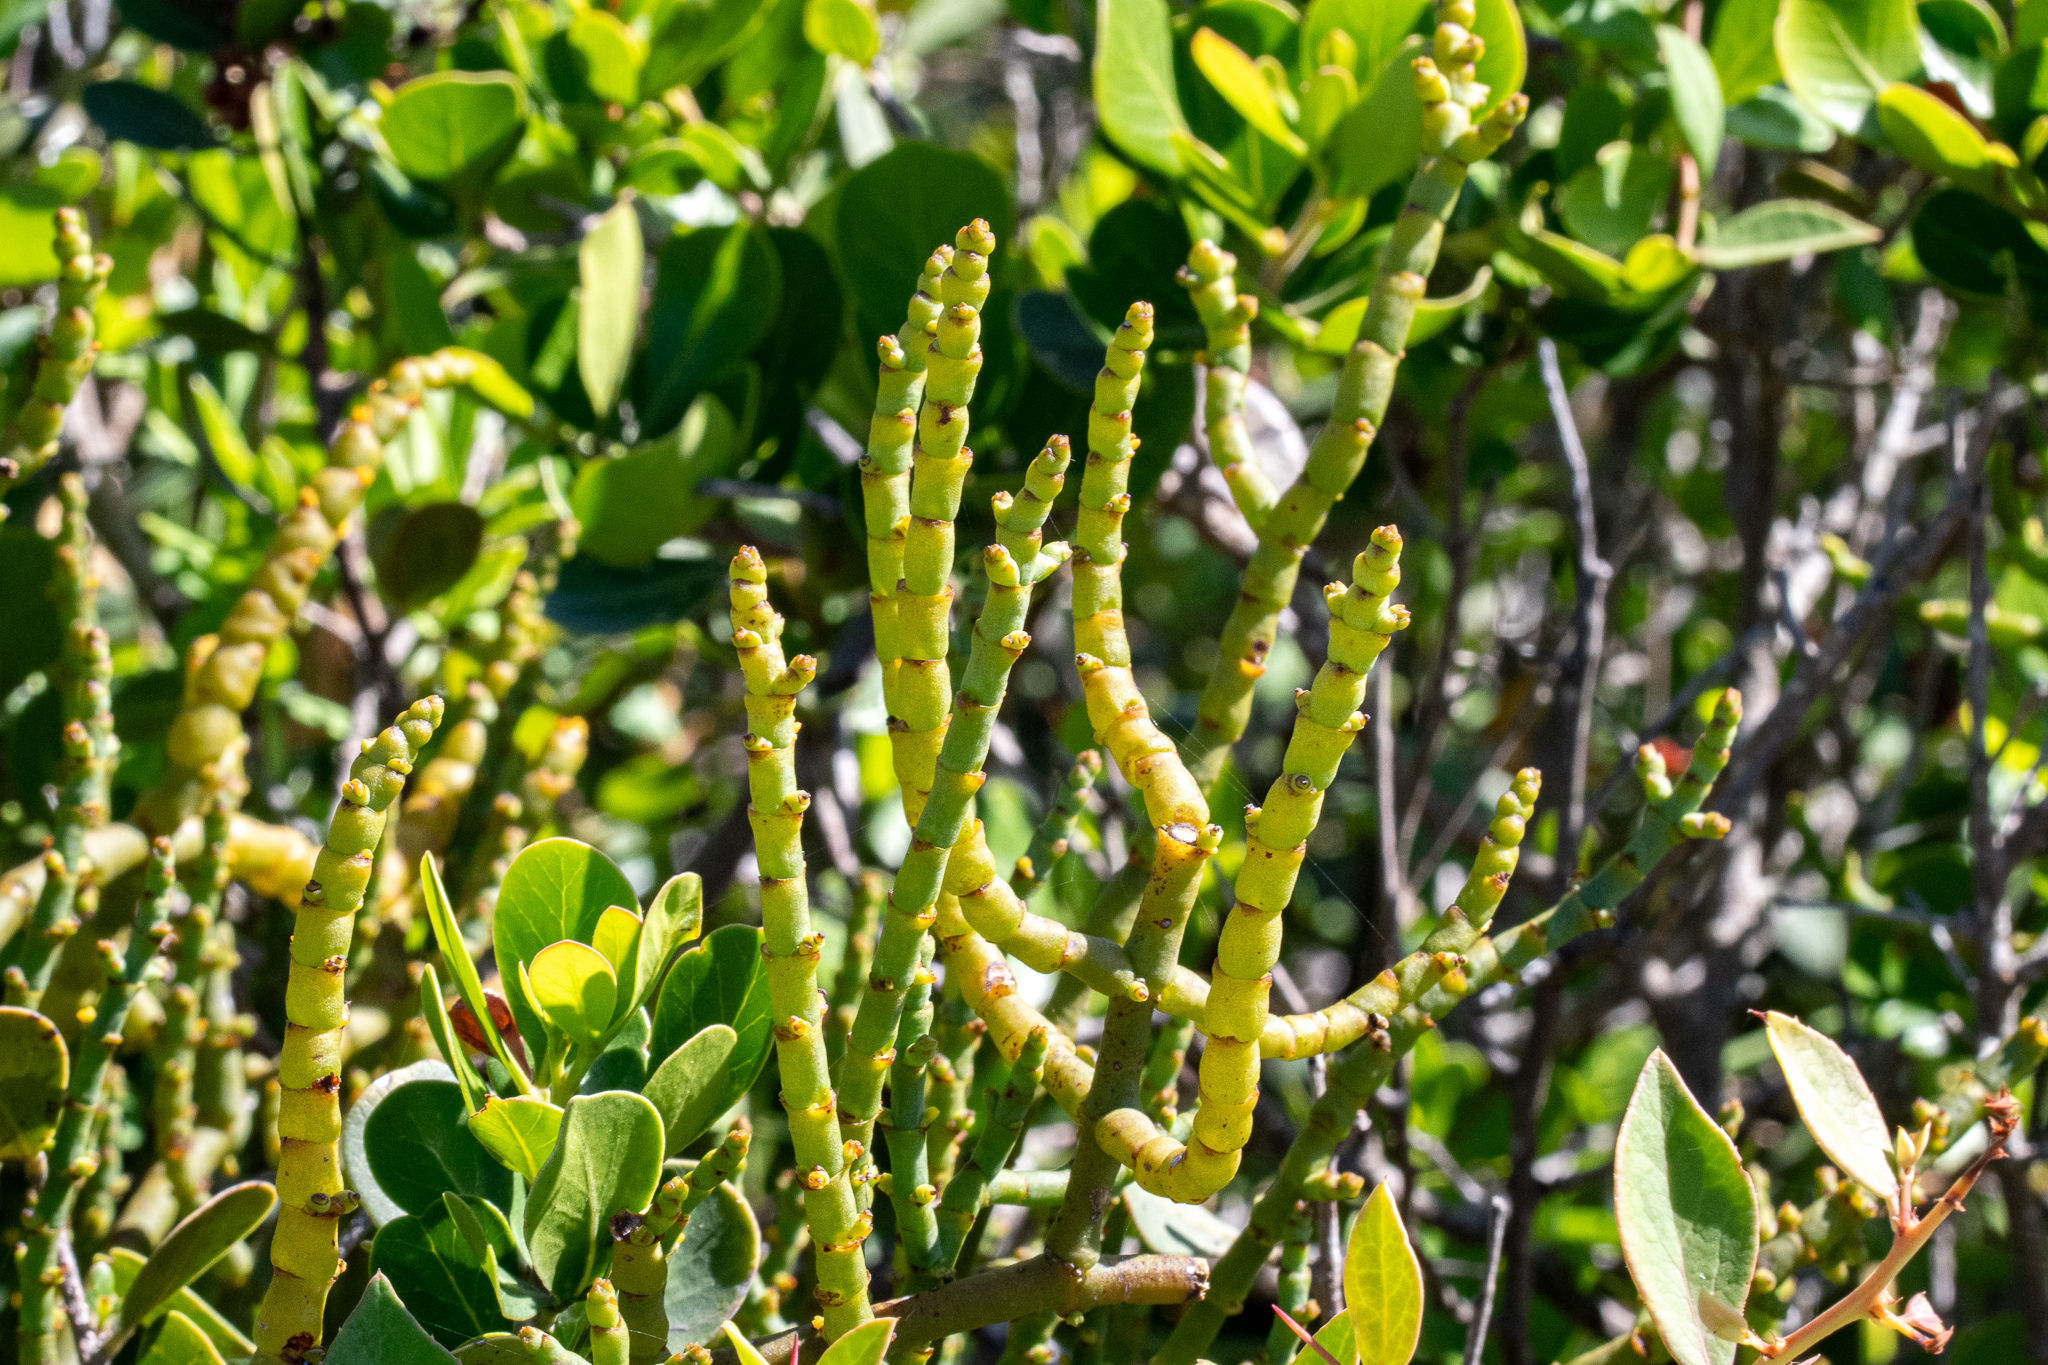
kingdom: Plantae
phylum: Tracheophyta
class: Magnoliopsida
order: Santalales
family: Viscaceae
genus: Viscum
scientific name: Viscum capense
